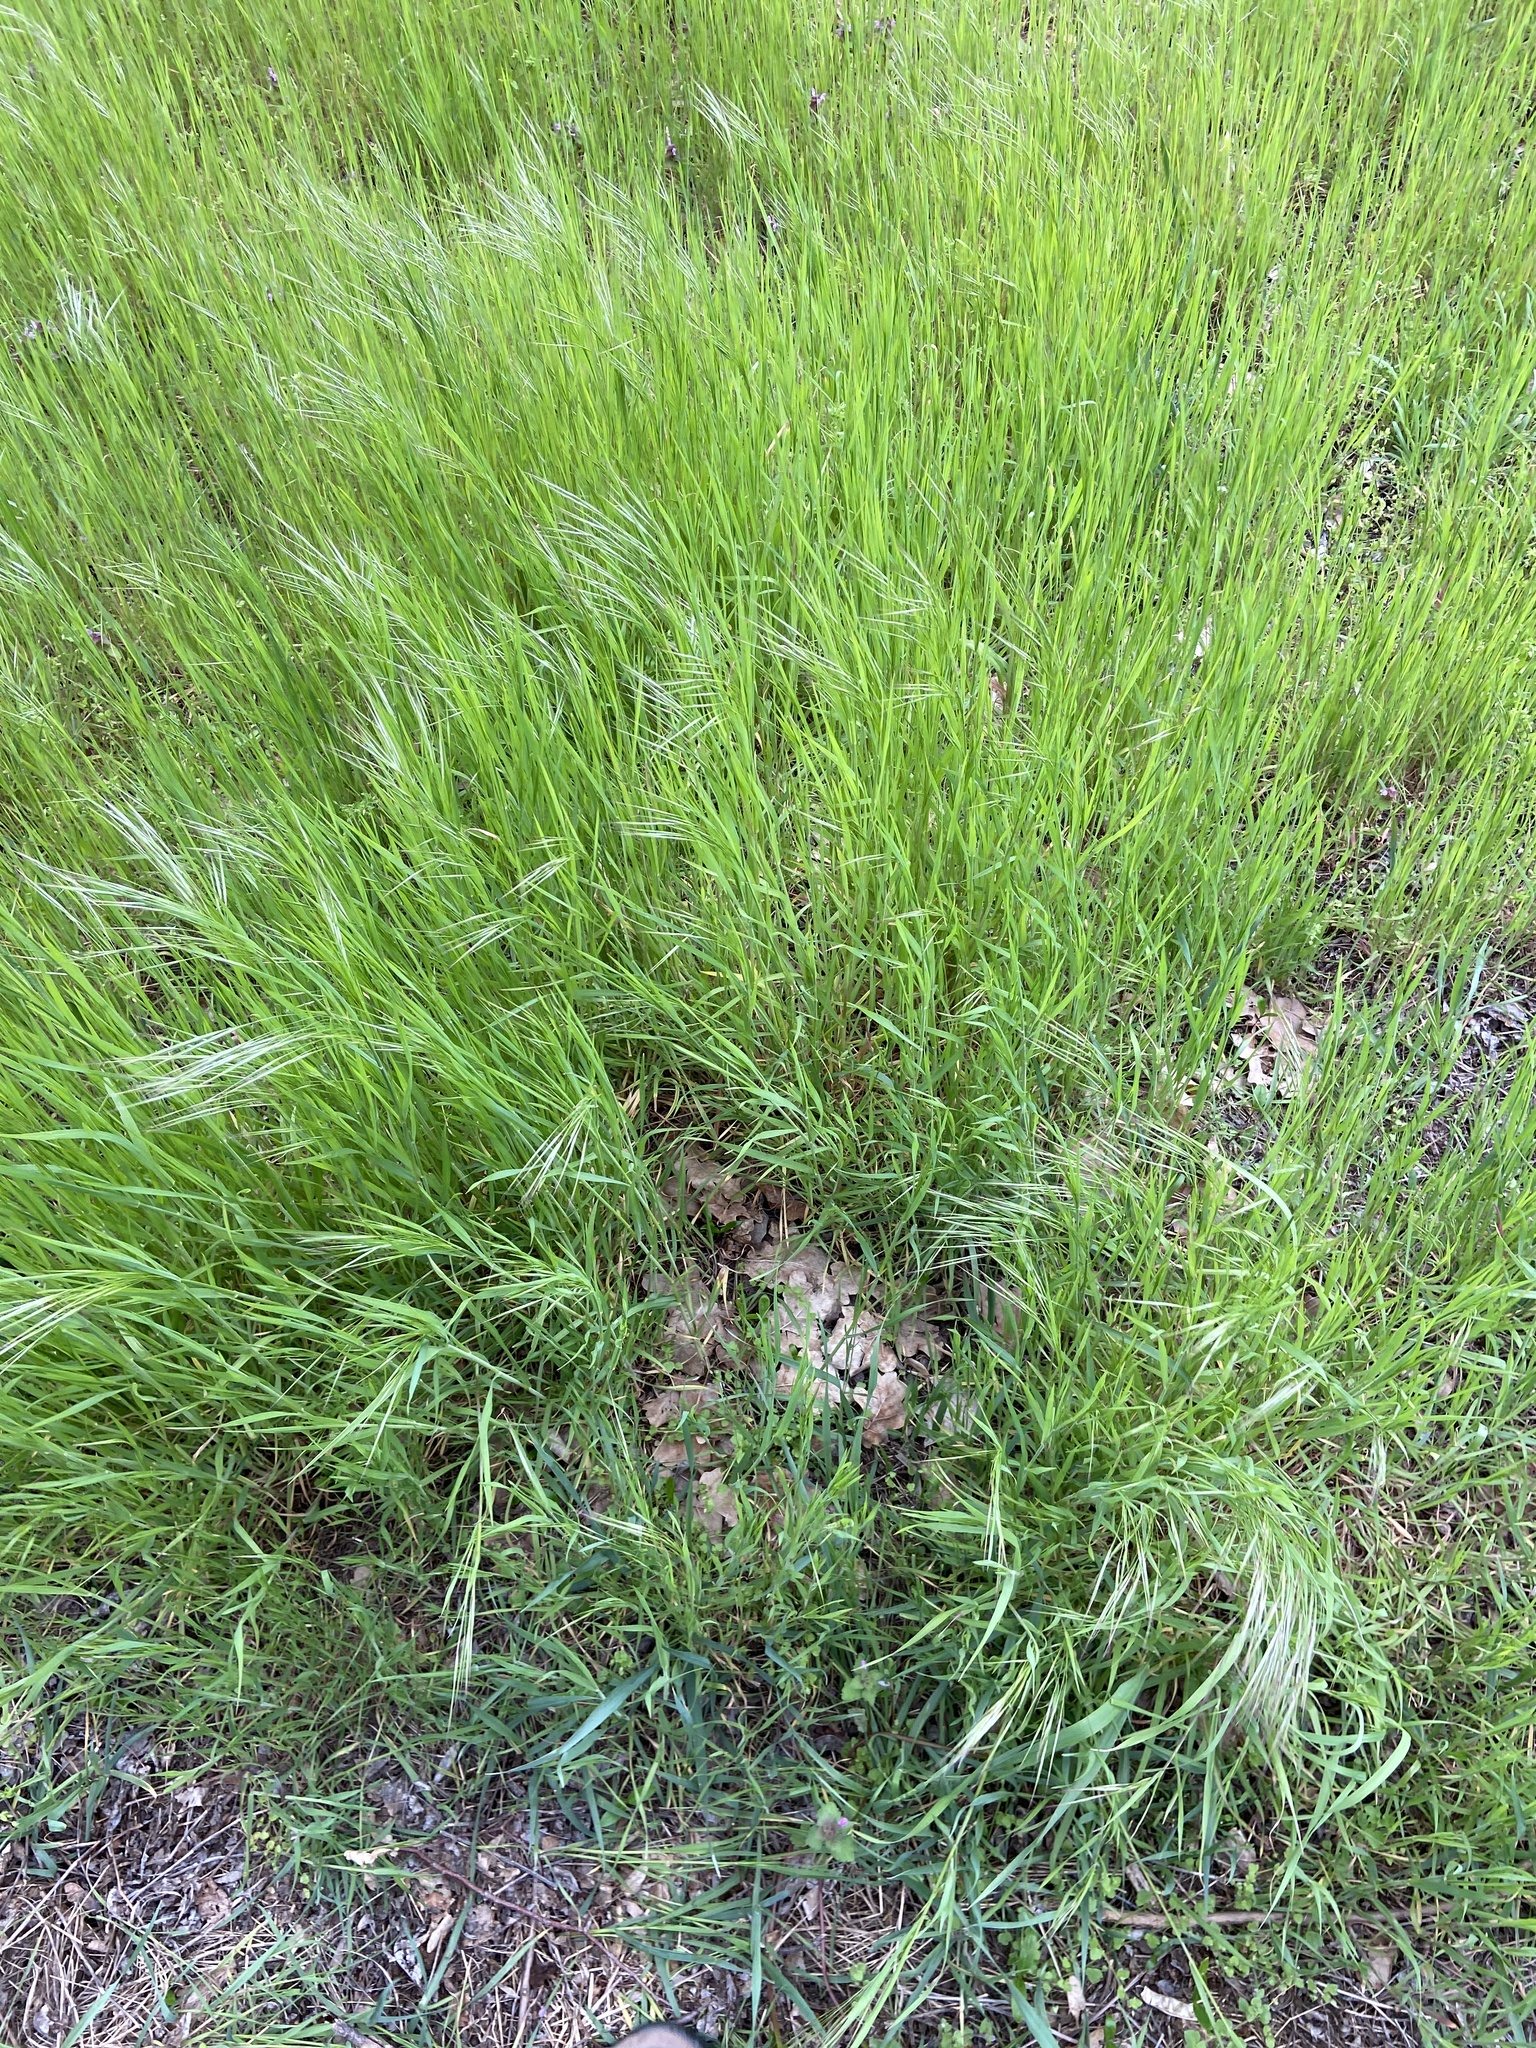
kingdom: Plantae
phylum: Tracheophyta
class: Liliopsida
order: Poales
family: Poaceae
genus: Bromus
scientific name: Bromus sterilis
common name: Poverty brome
